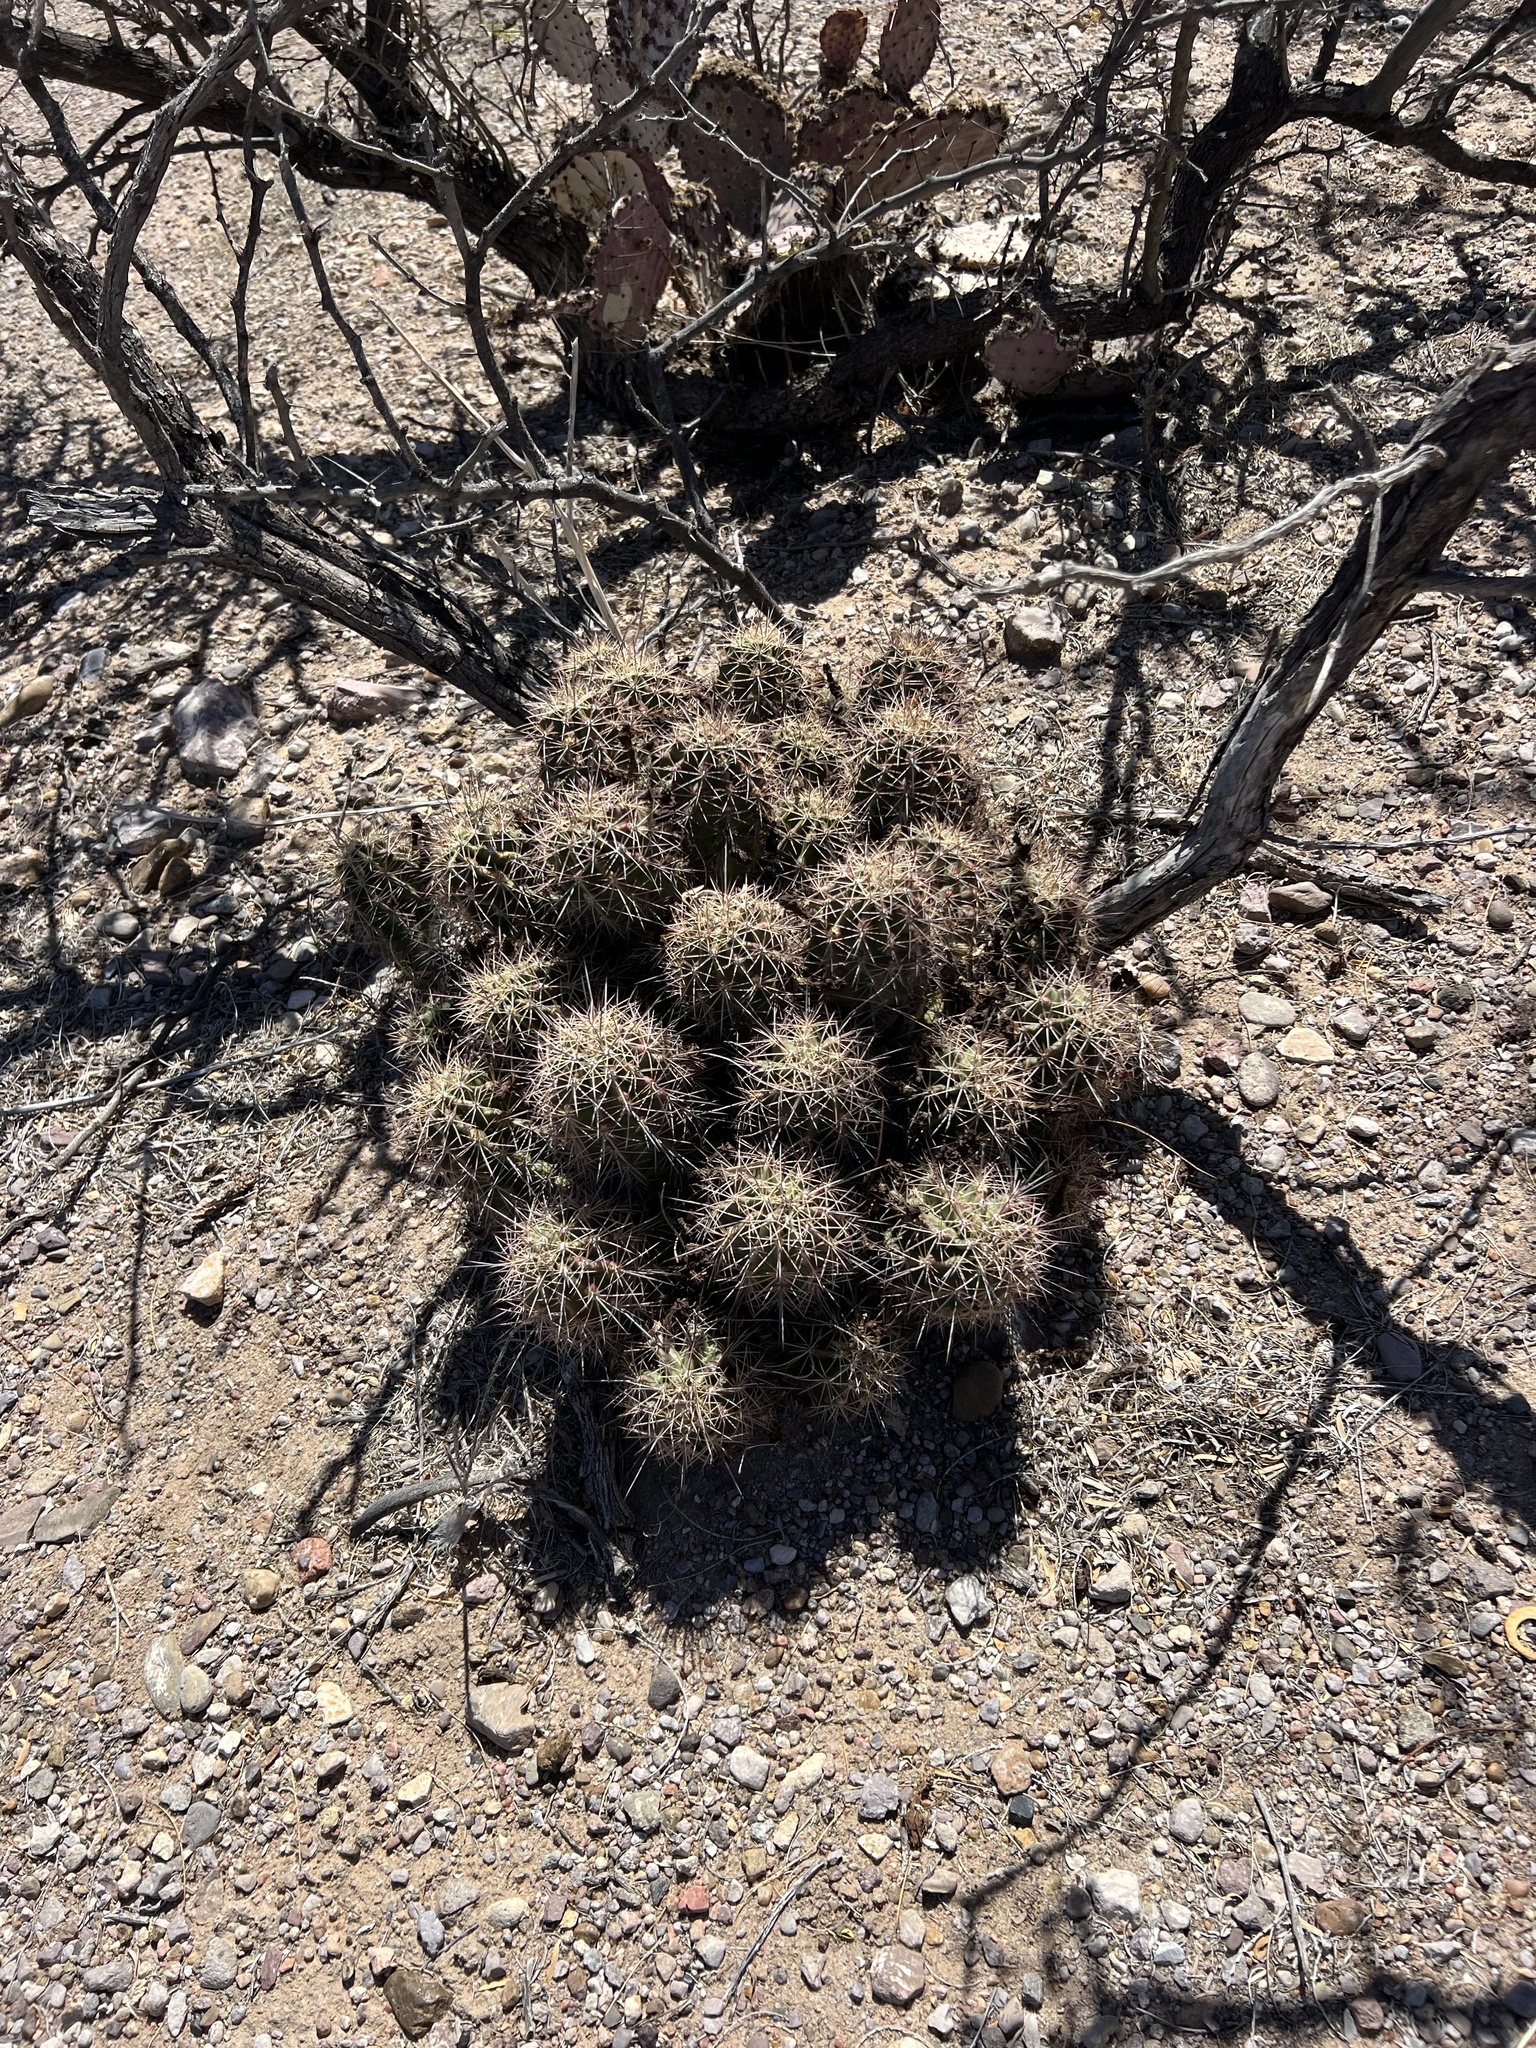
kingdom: Plantae
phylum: Tracheophyta
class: Magnoliopsida
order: Caryophyllales
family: Cactaceae
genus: Echinocereus
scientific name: Echinocereus coccineus
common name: Scarlet hedgehog cactus
